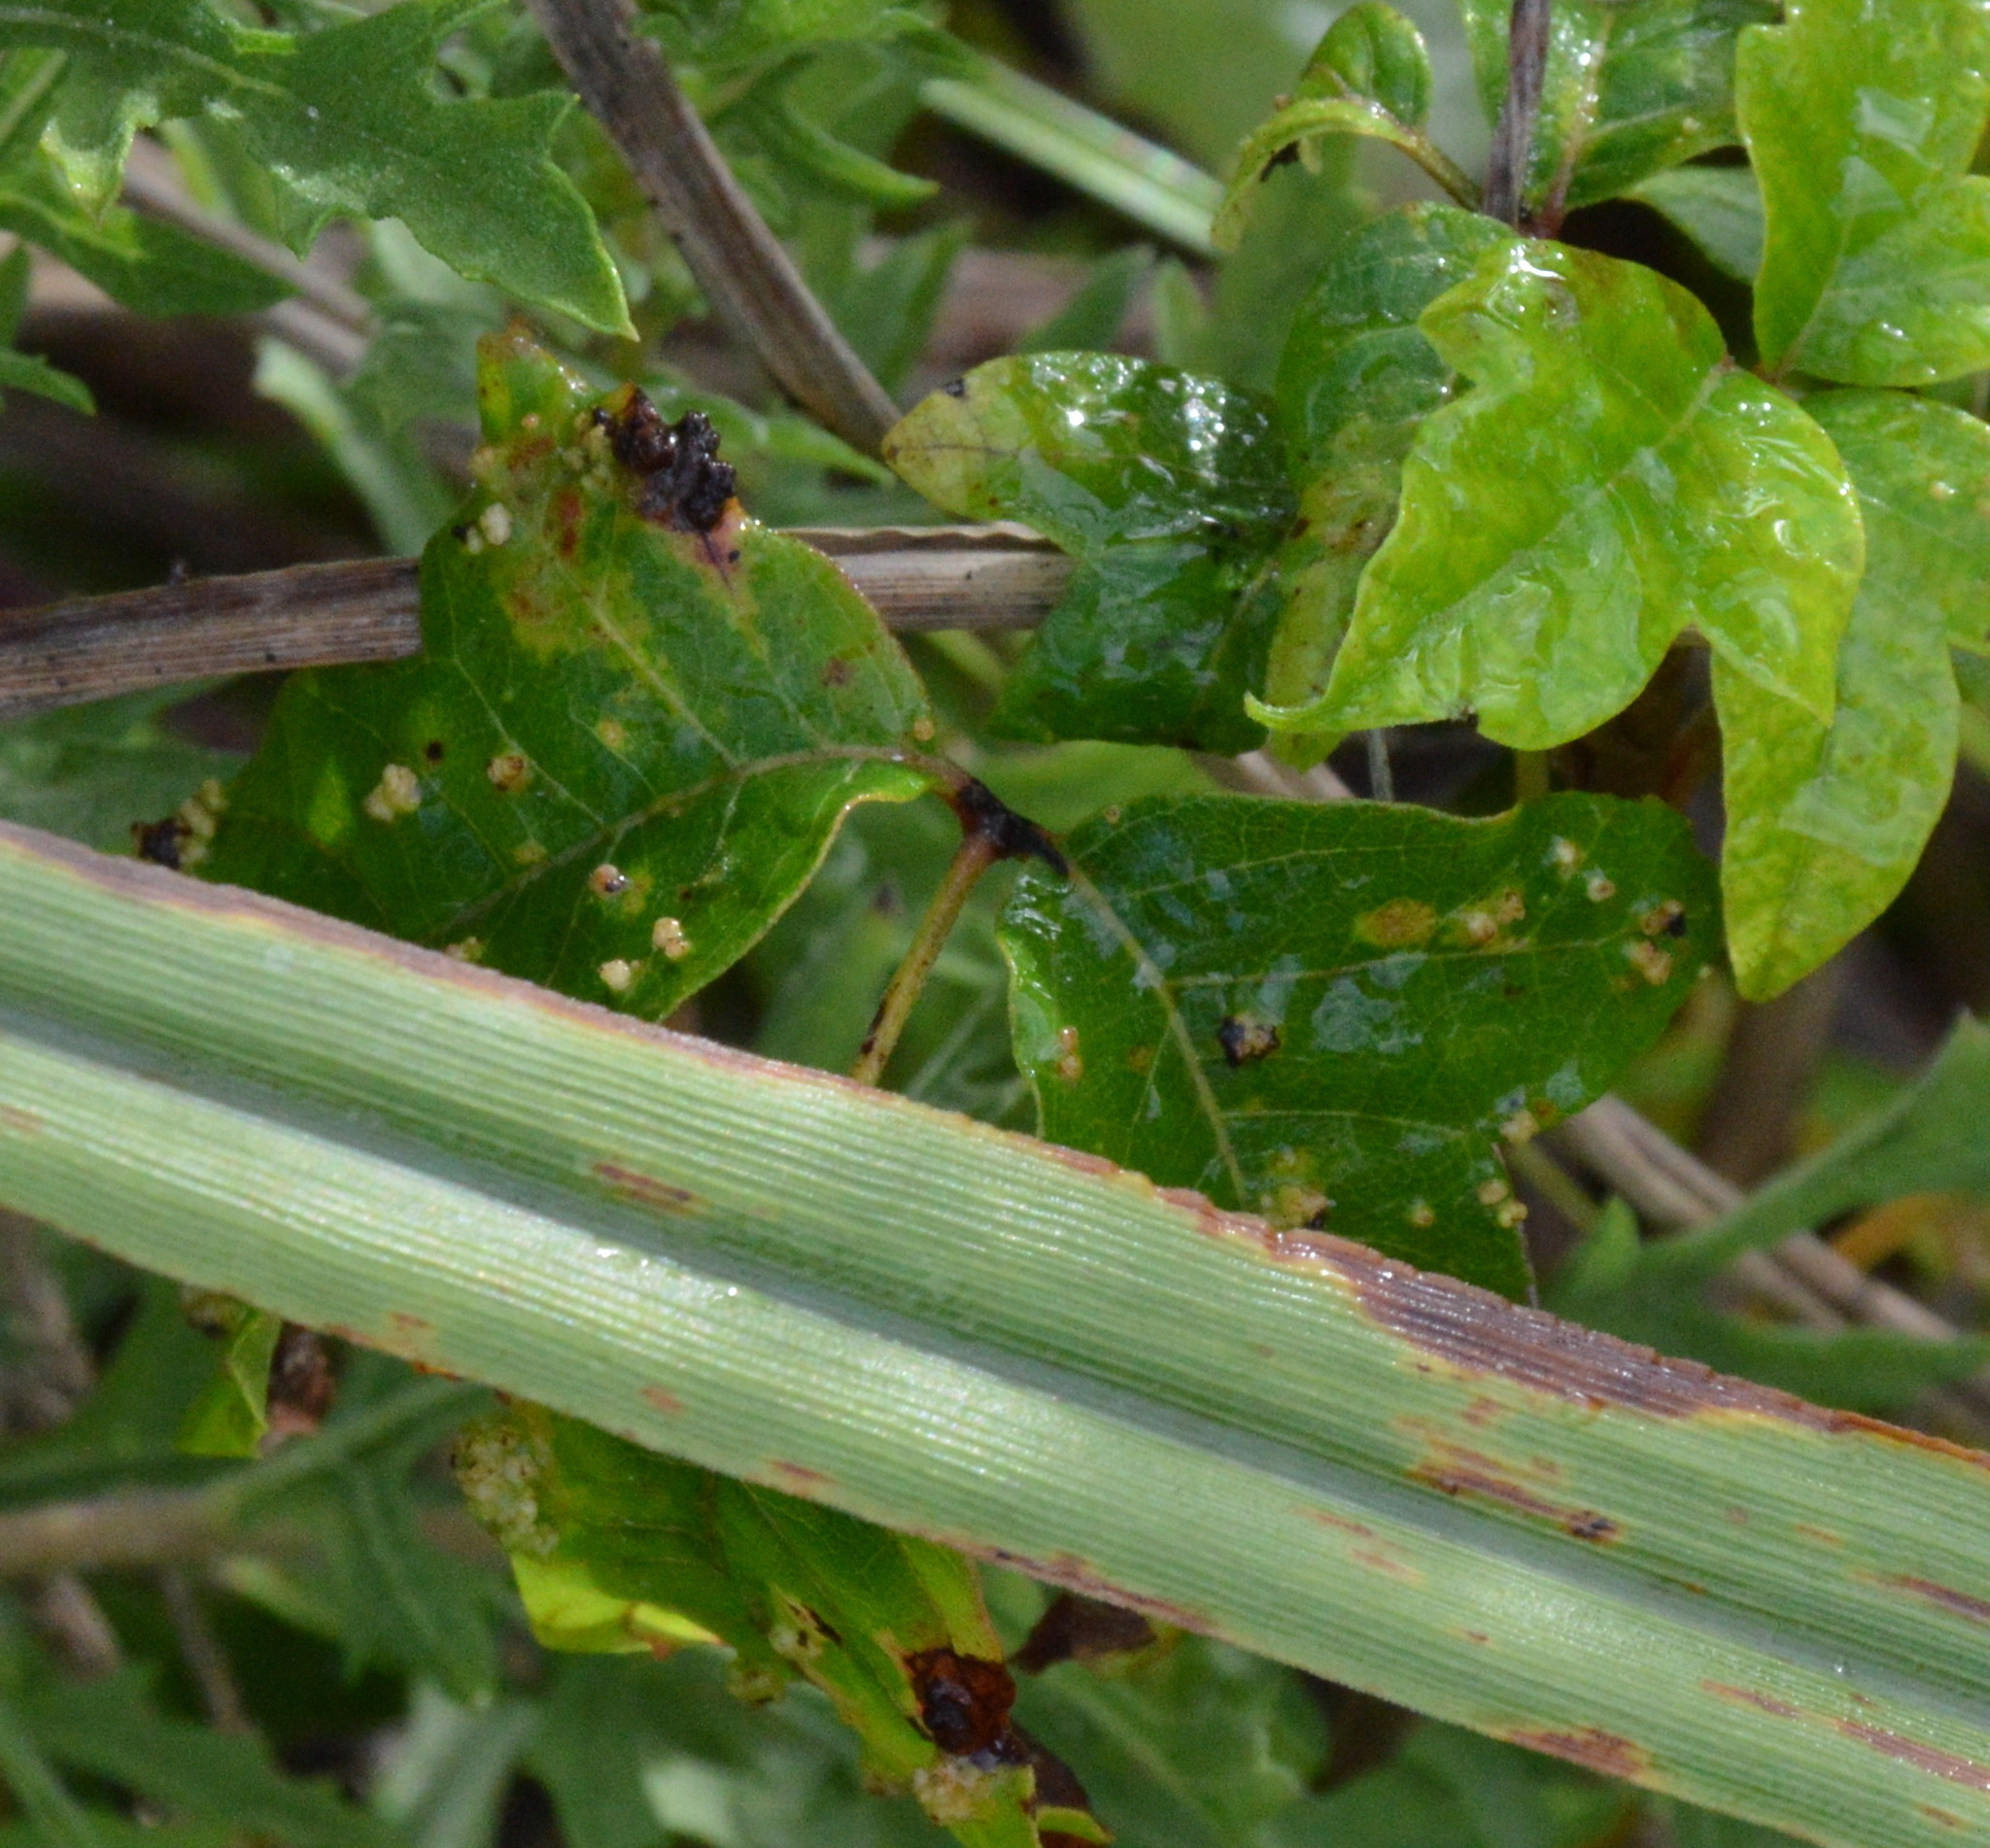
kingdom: Animalia
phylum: Arthropoda
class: Arachnida
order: Trombidiformes
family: Eriophyidae
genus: Aculops
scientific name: Aculops
